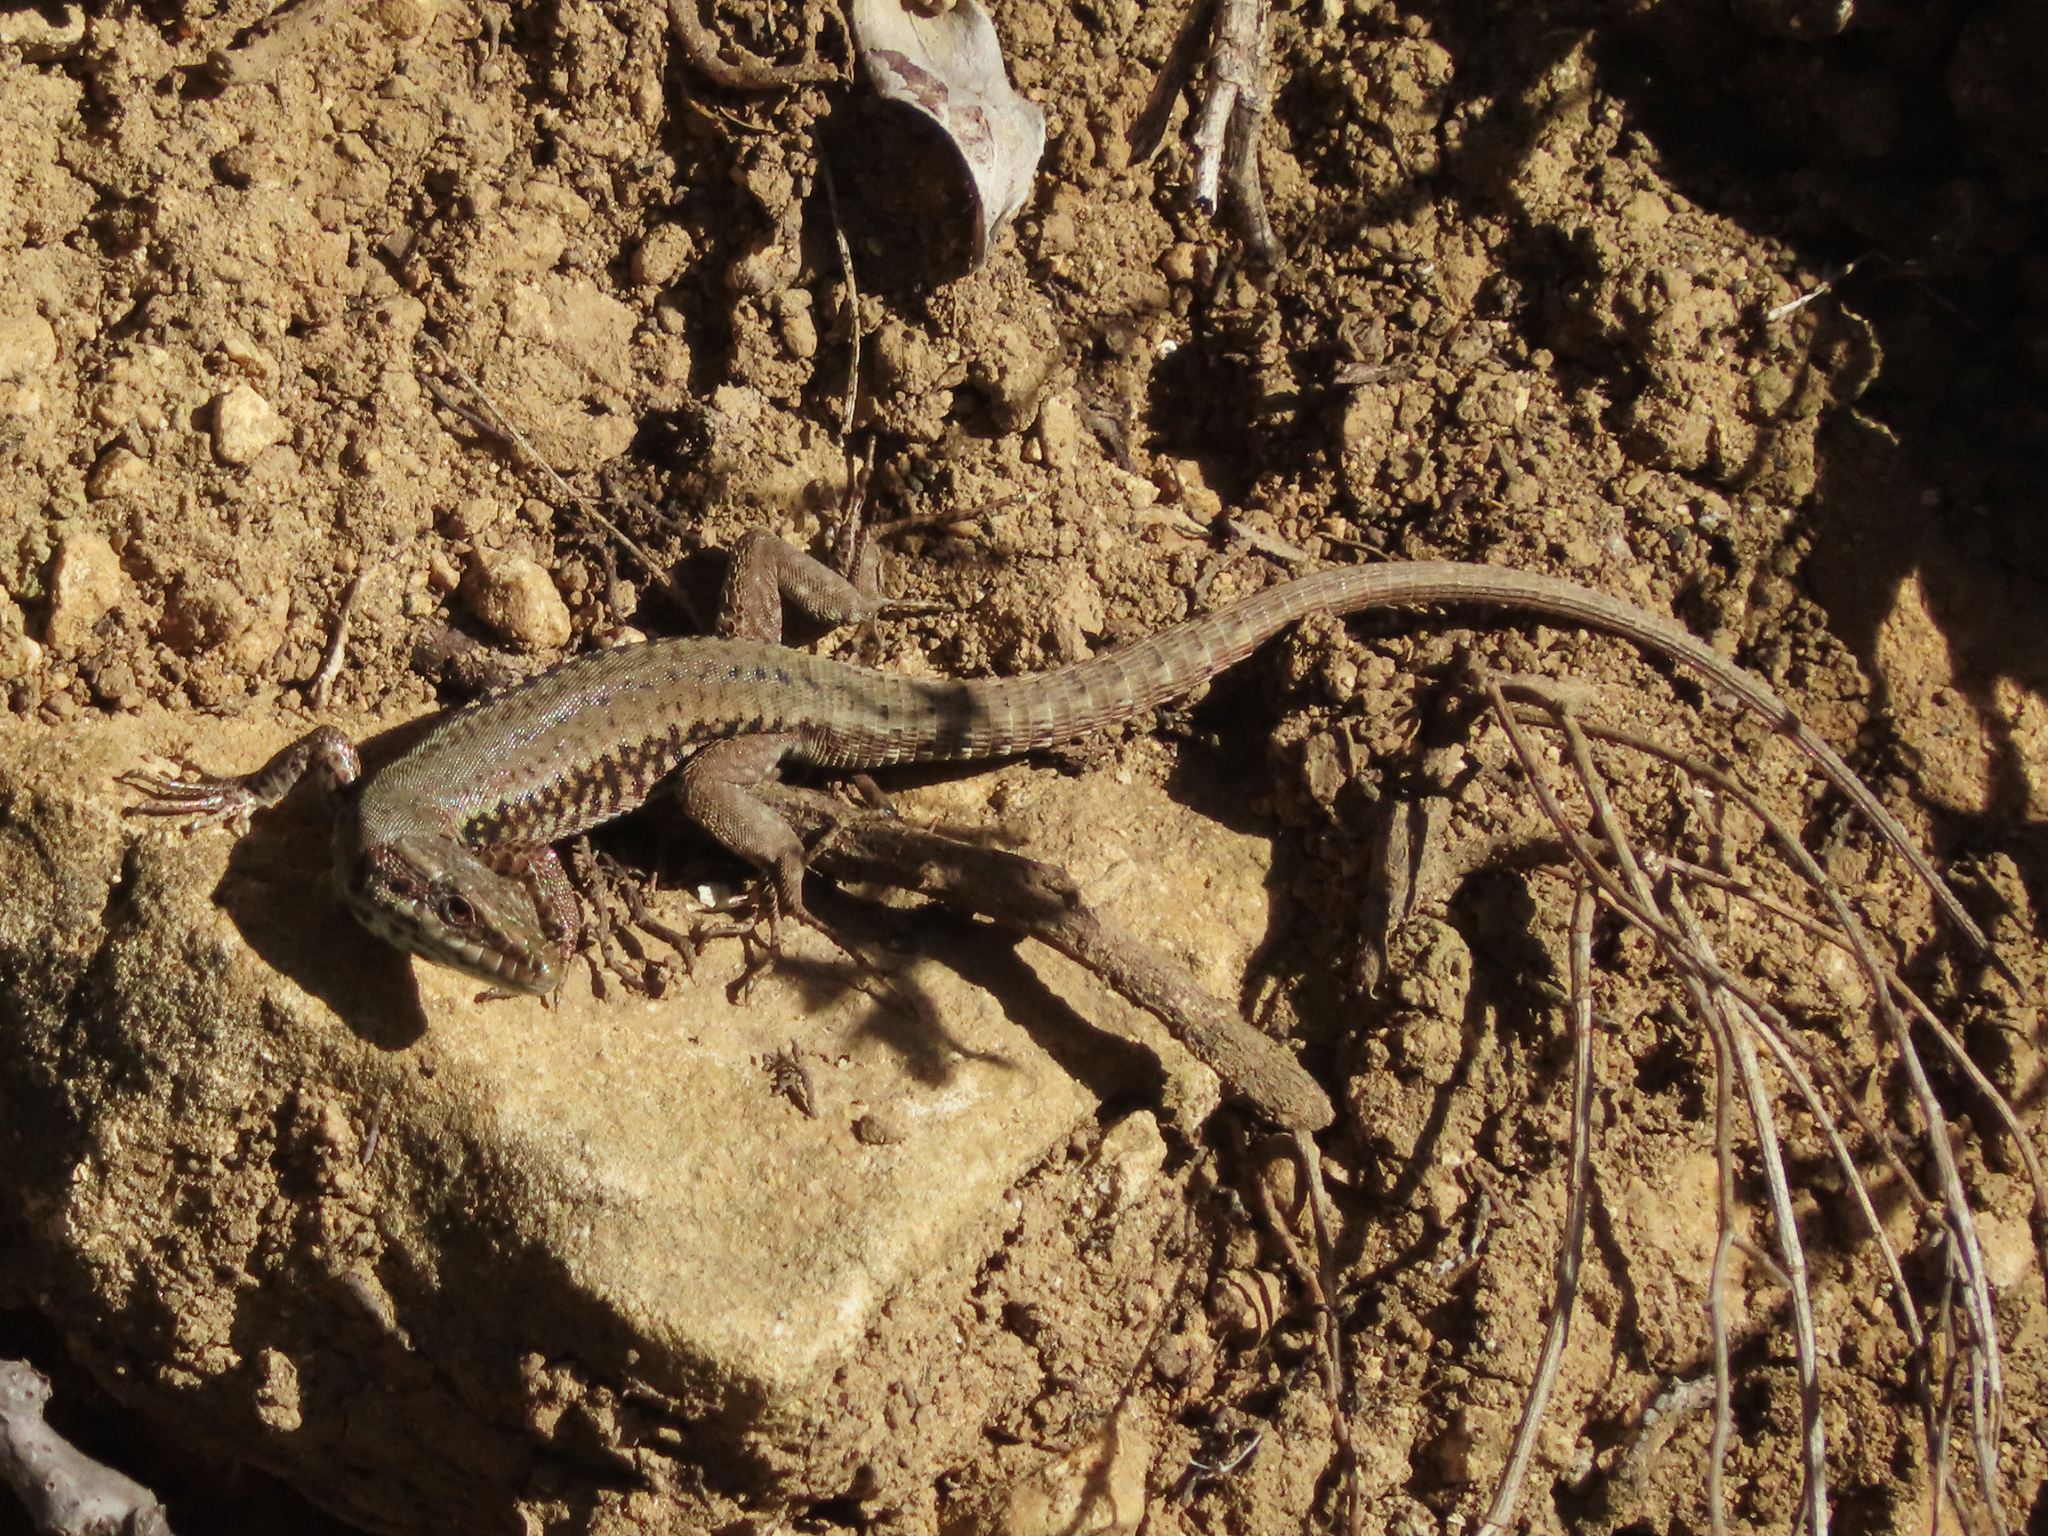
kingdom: Animalia
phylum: Chordata
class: Squamata
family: Lacertidae
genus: Podarcis
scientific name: Podarcis muralis
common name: Common wall lizard
